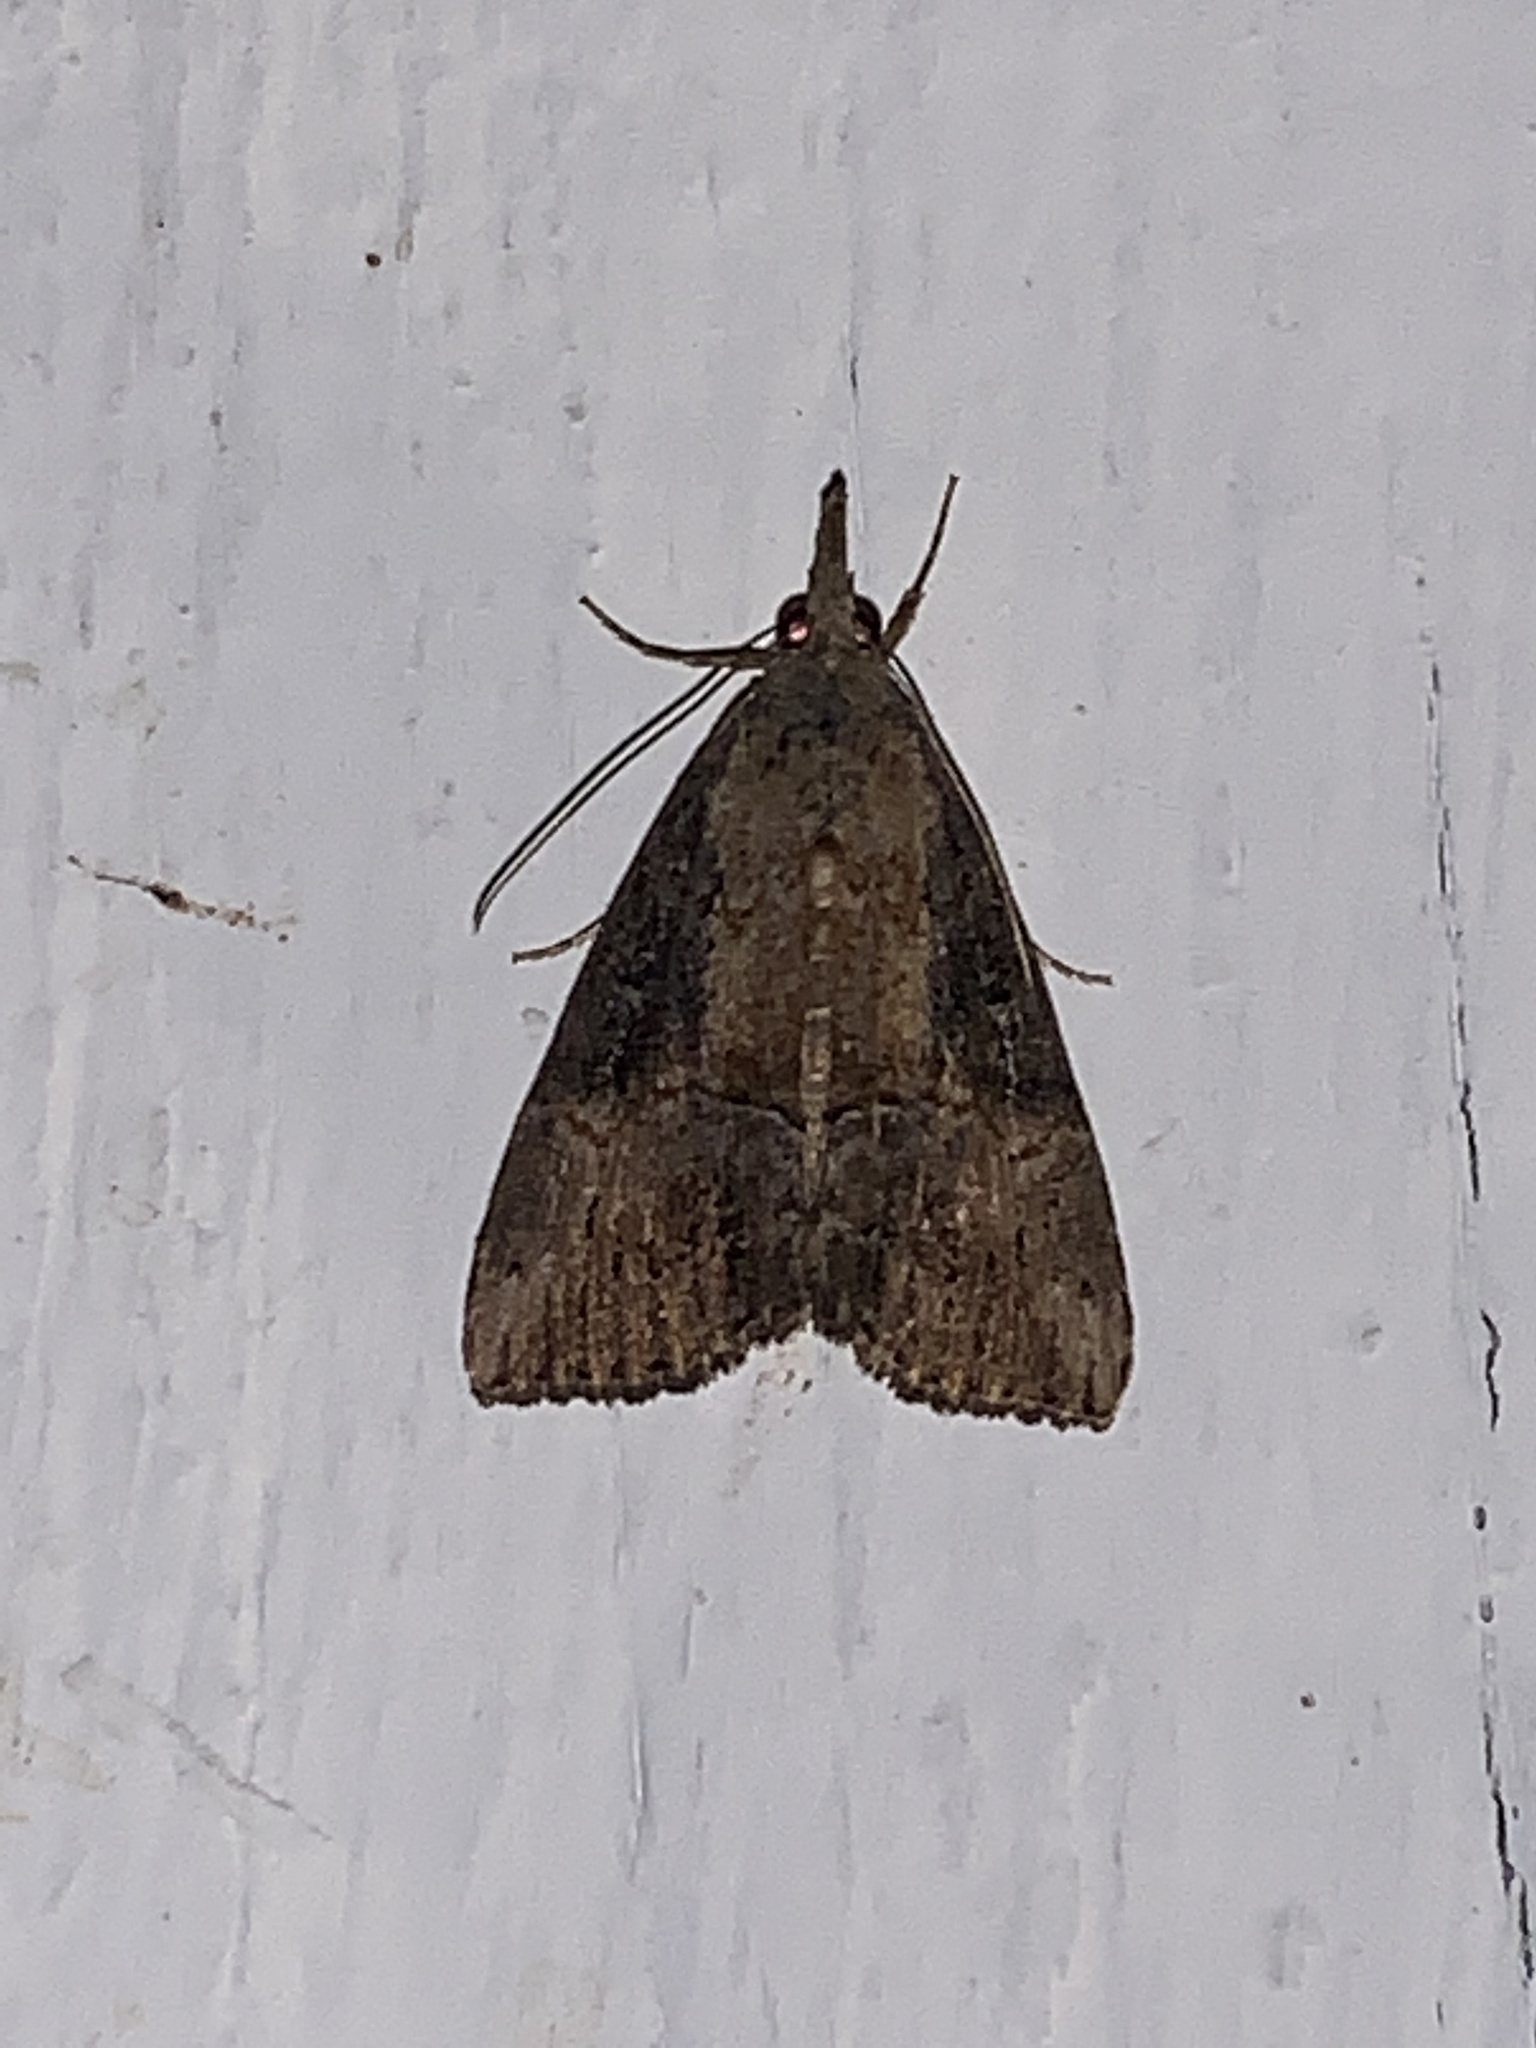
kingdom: Animalia
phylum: Arthropoda
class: Insecta
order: Lepidoptera
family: Erebidae
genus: Hypena
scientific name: Hypena scabra
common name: Green cloverworm
